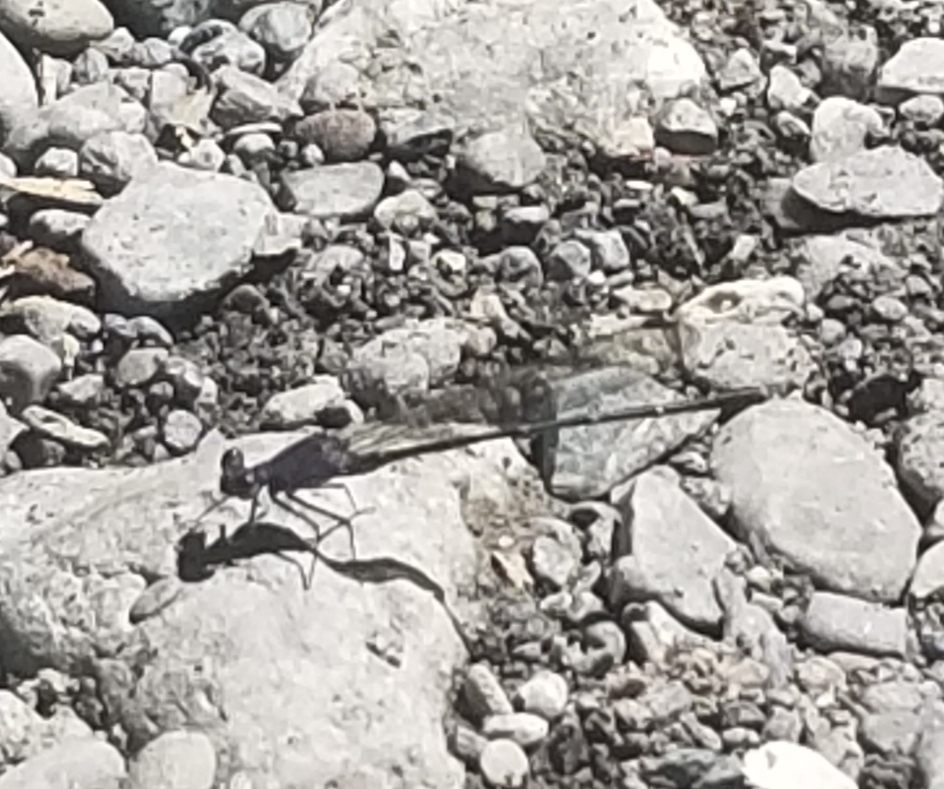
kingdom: Animalia
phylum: Arthropoda
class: Insecta
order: Odonata
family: Coenagrionidae
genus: Argia
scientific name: Argia lugens
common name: Sooty dancer
